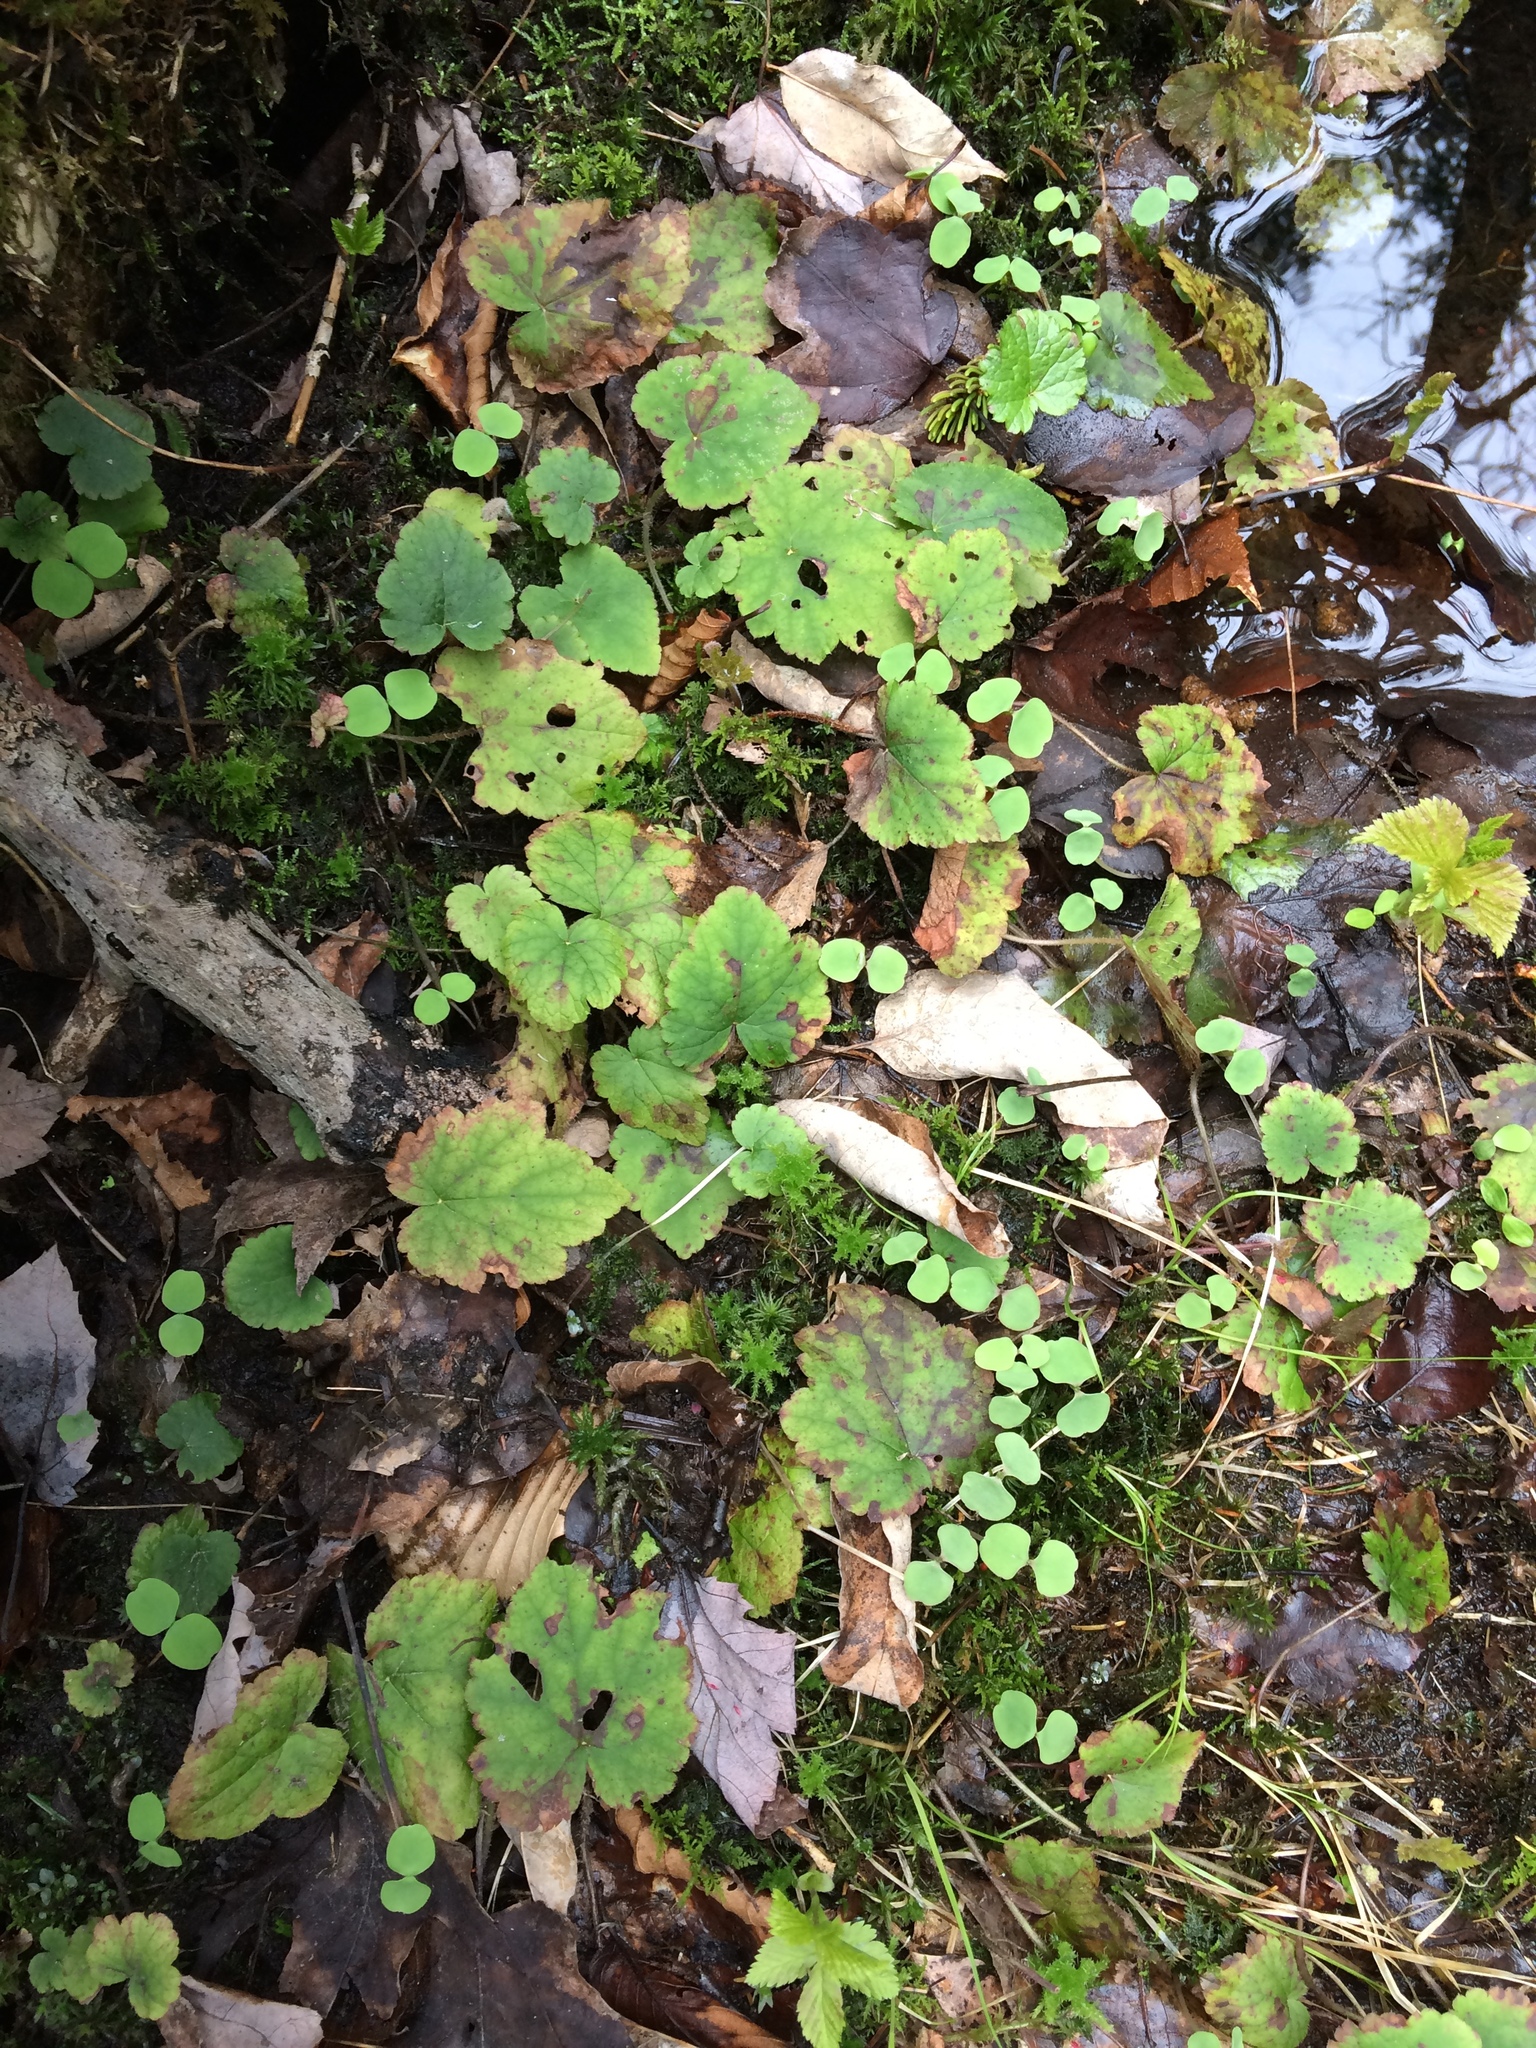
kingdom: Plantae
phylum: Tracheophyta
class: Magnoliopsida
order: Saxifragales
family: Saxifragaceae
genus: Tiarella
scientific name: Tiarella stolonifera
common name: Stoloniferous foamflower
